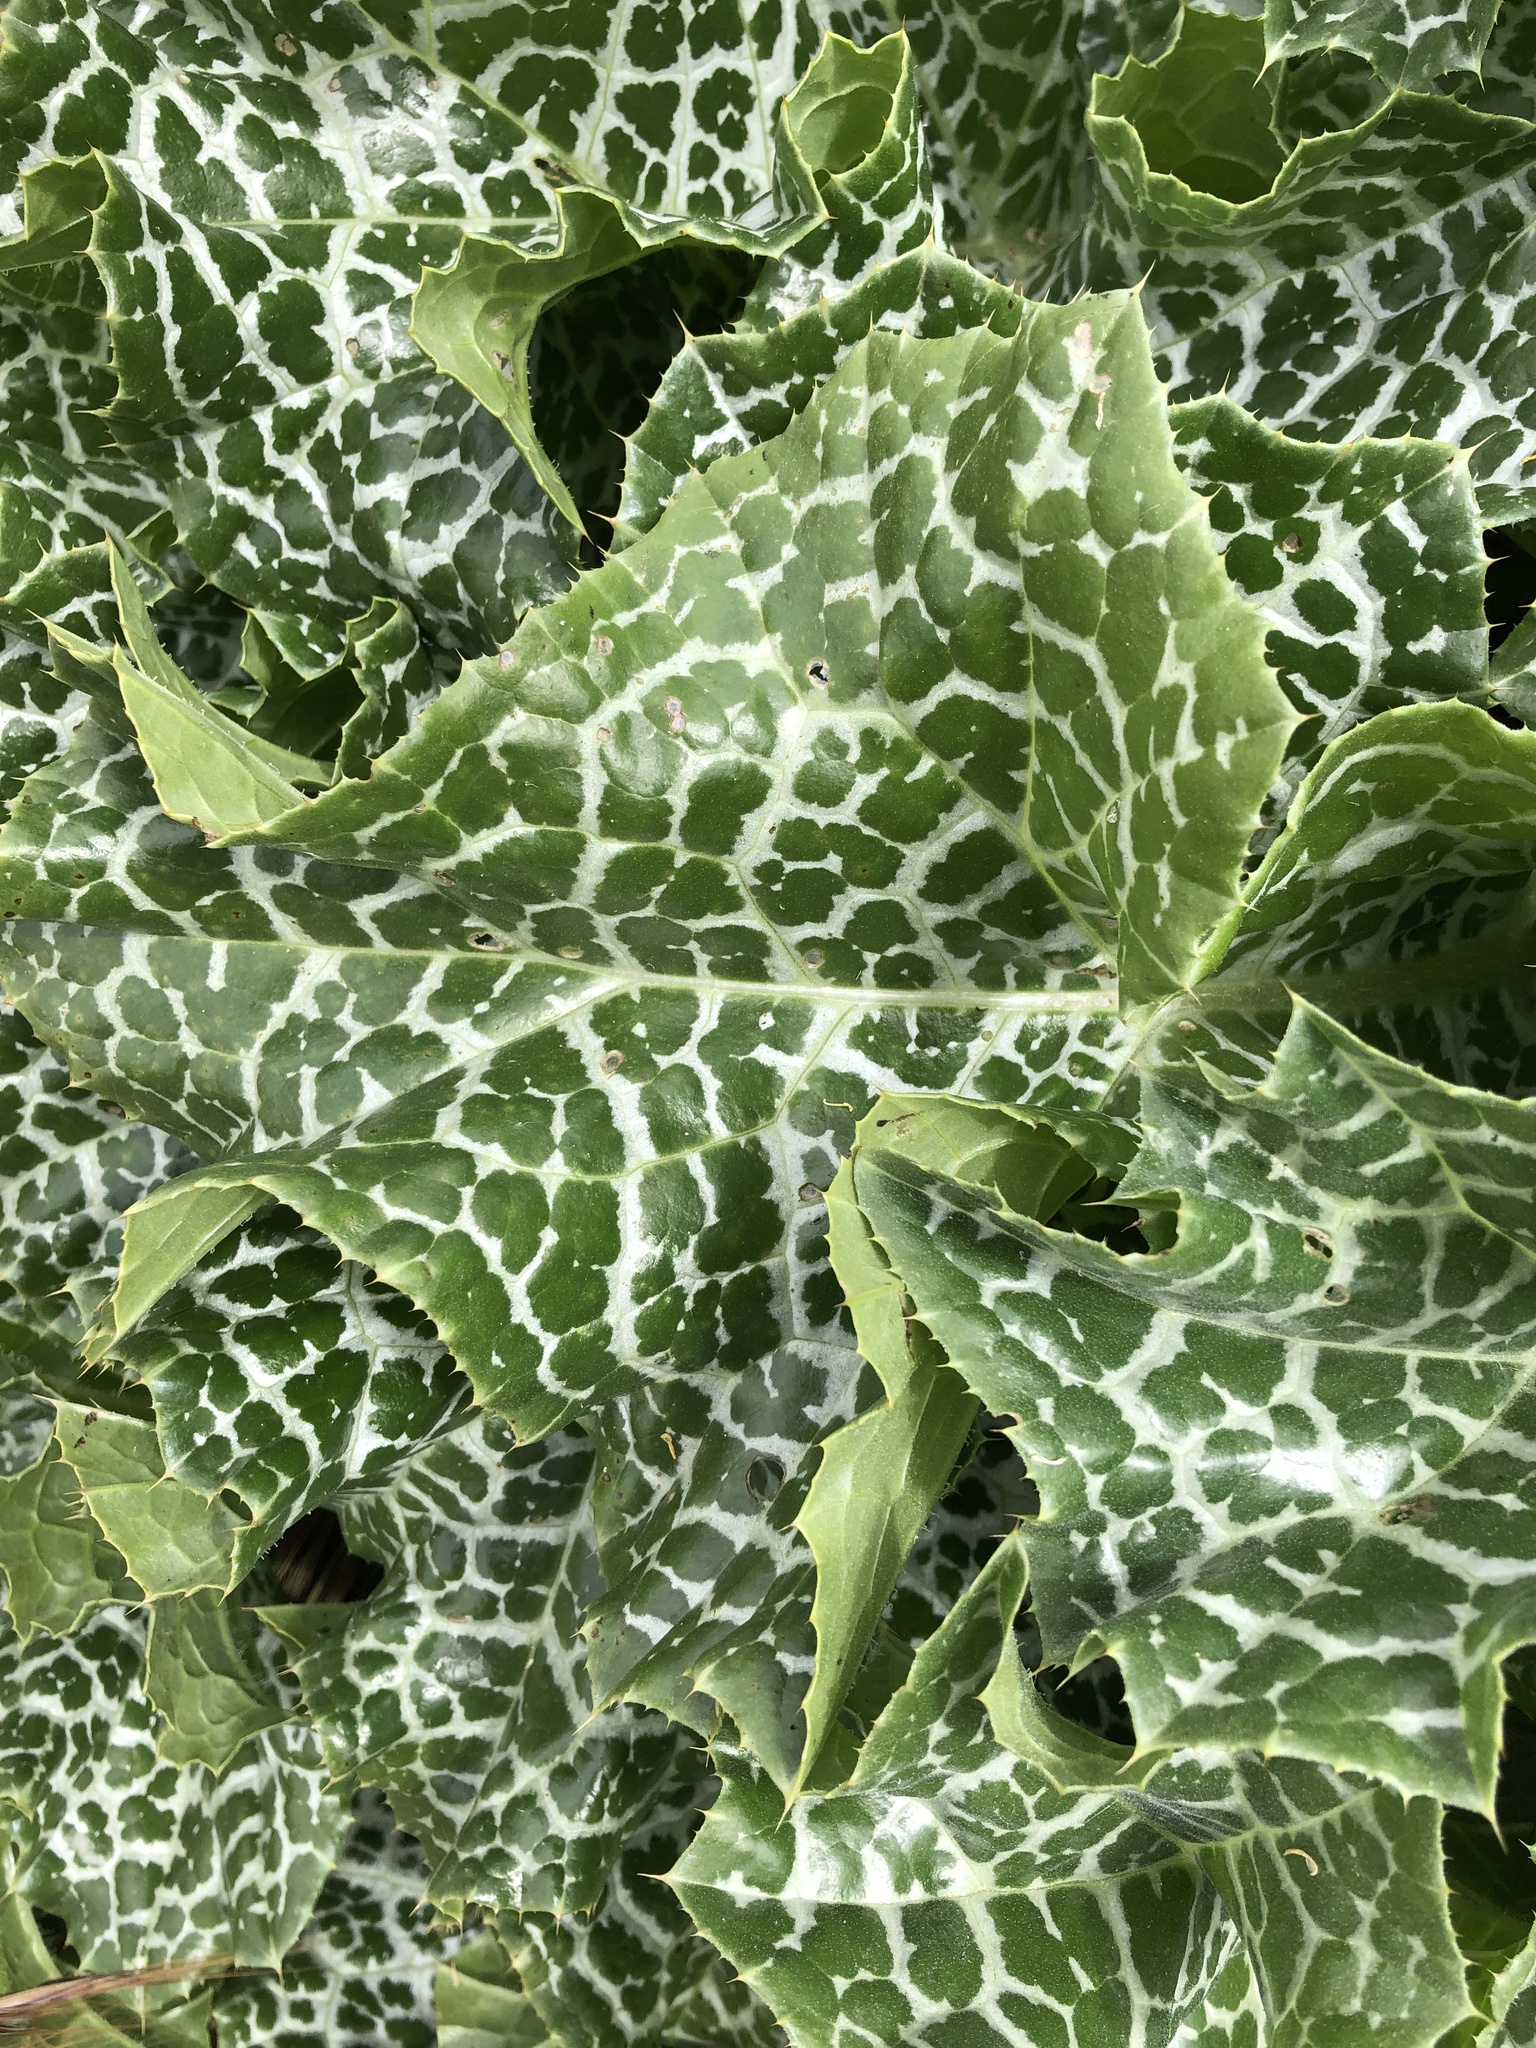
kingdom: Plantae
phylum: Tracheophyta
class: Magnoliopsida
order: Asterales
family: Asteraceae
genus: Silybum
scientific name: Silybum marianum
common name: Milk thistle
